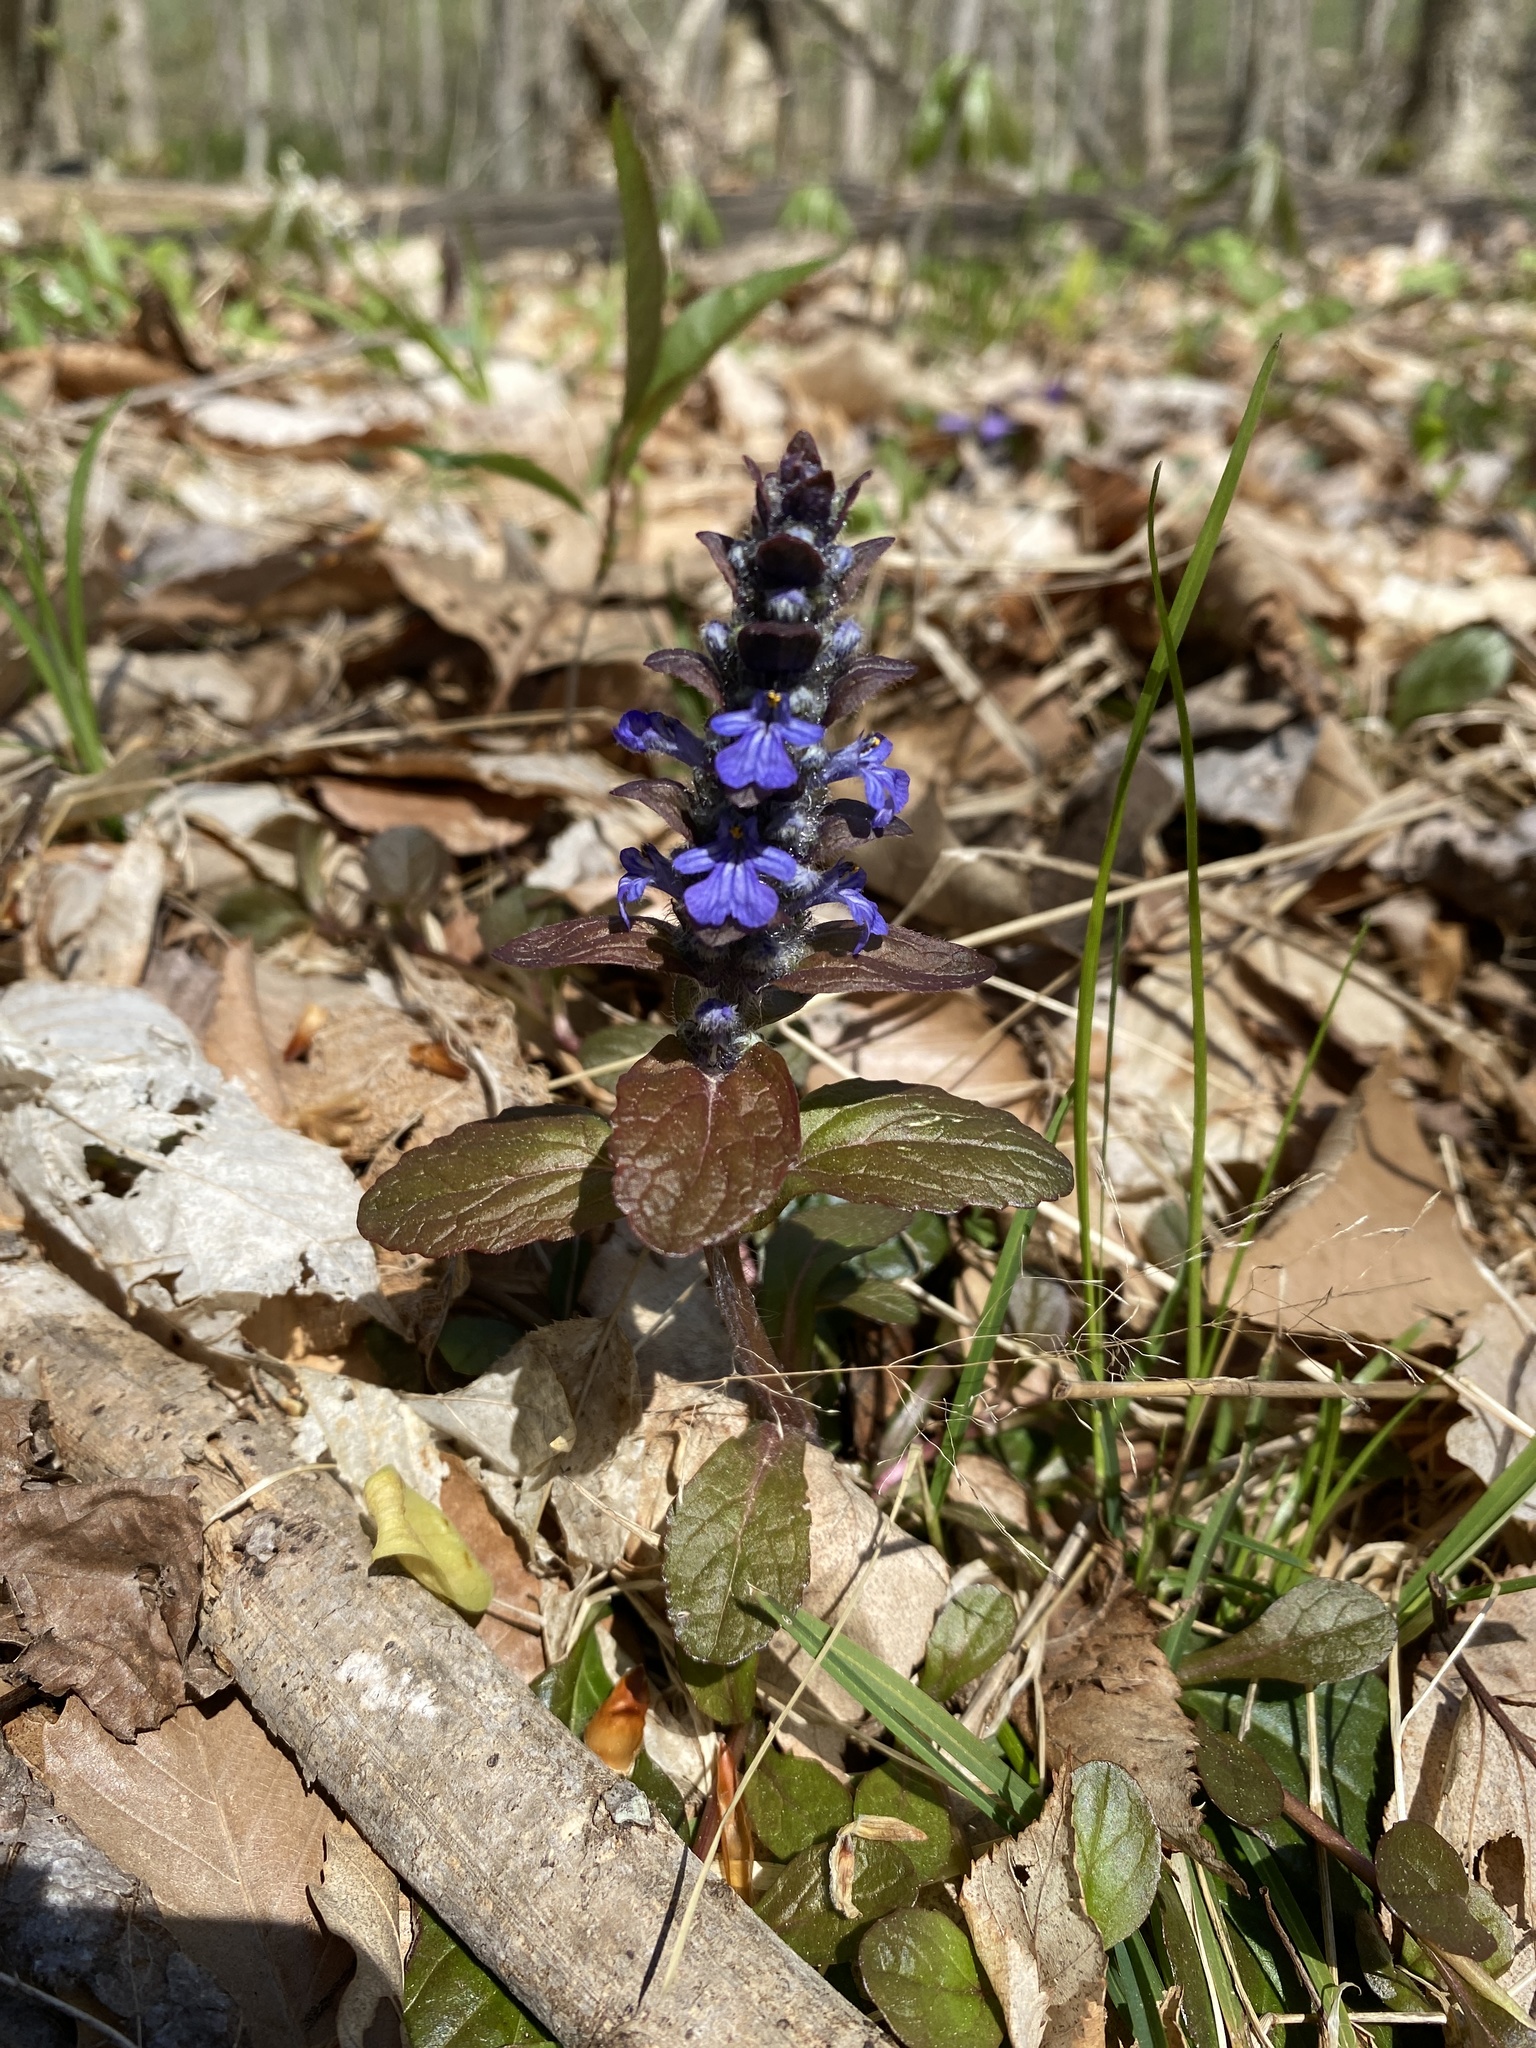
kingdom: Plantae
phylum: Tracheophyta
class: Magnoliopsida
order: Lamiales
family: Lamiaceae
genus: Ajuga
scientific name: Ajuga reptans
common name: Bugle
